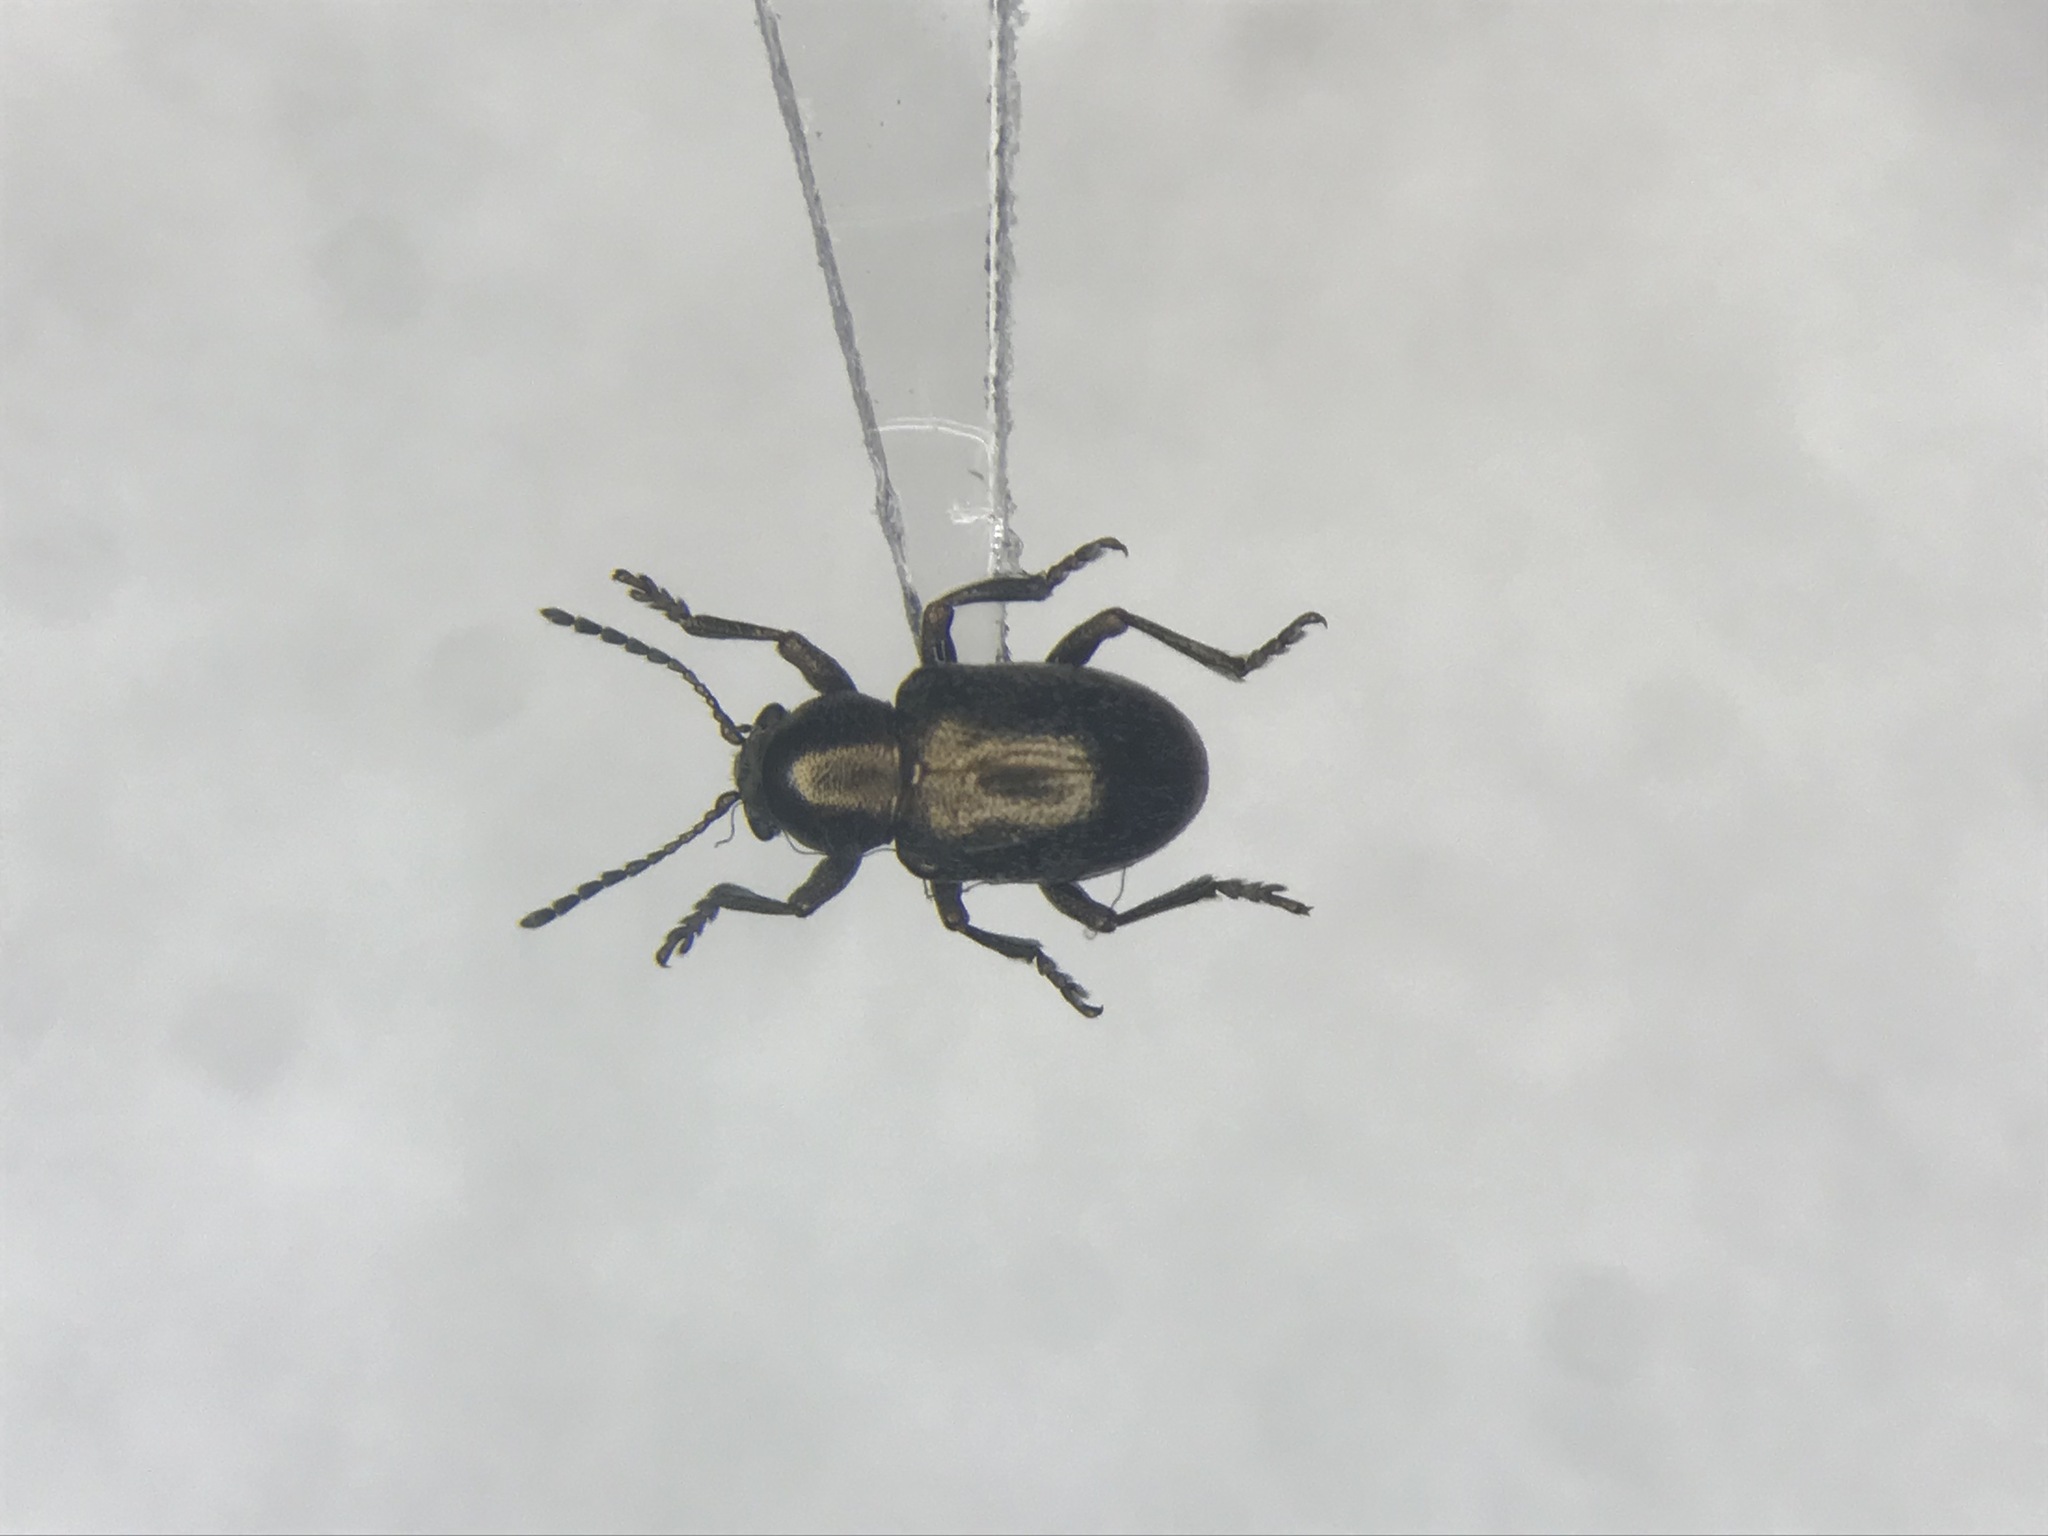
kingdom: Animalia
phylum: Arthropoda
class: Insecta
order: Coleoptera
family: Chrysomelidae
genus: Graphops
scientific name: Graphops pubescens
